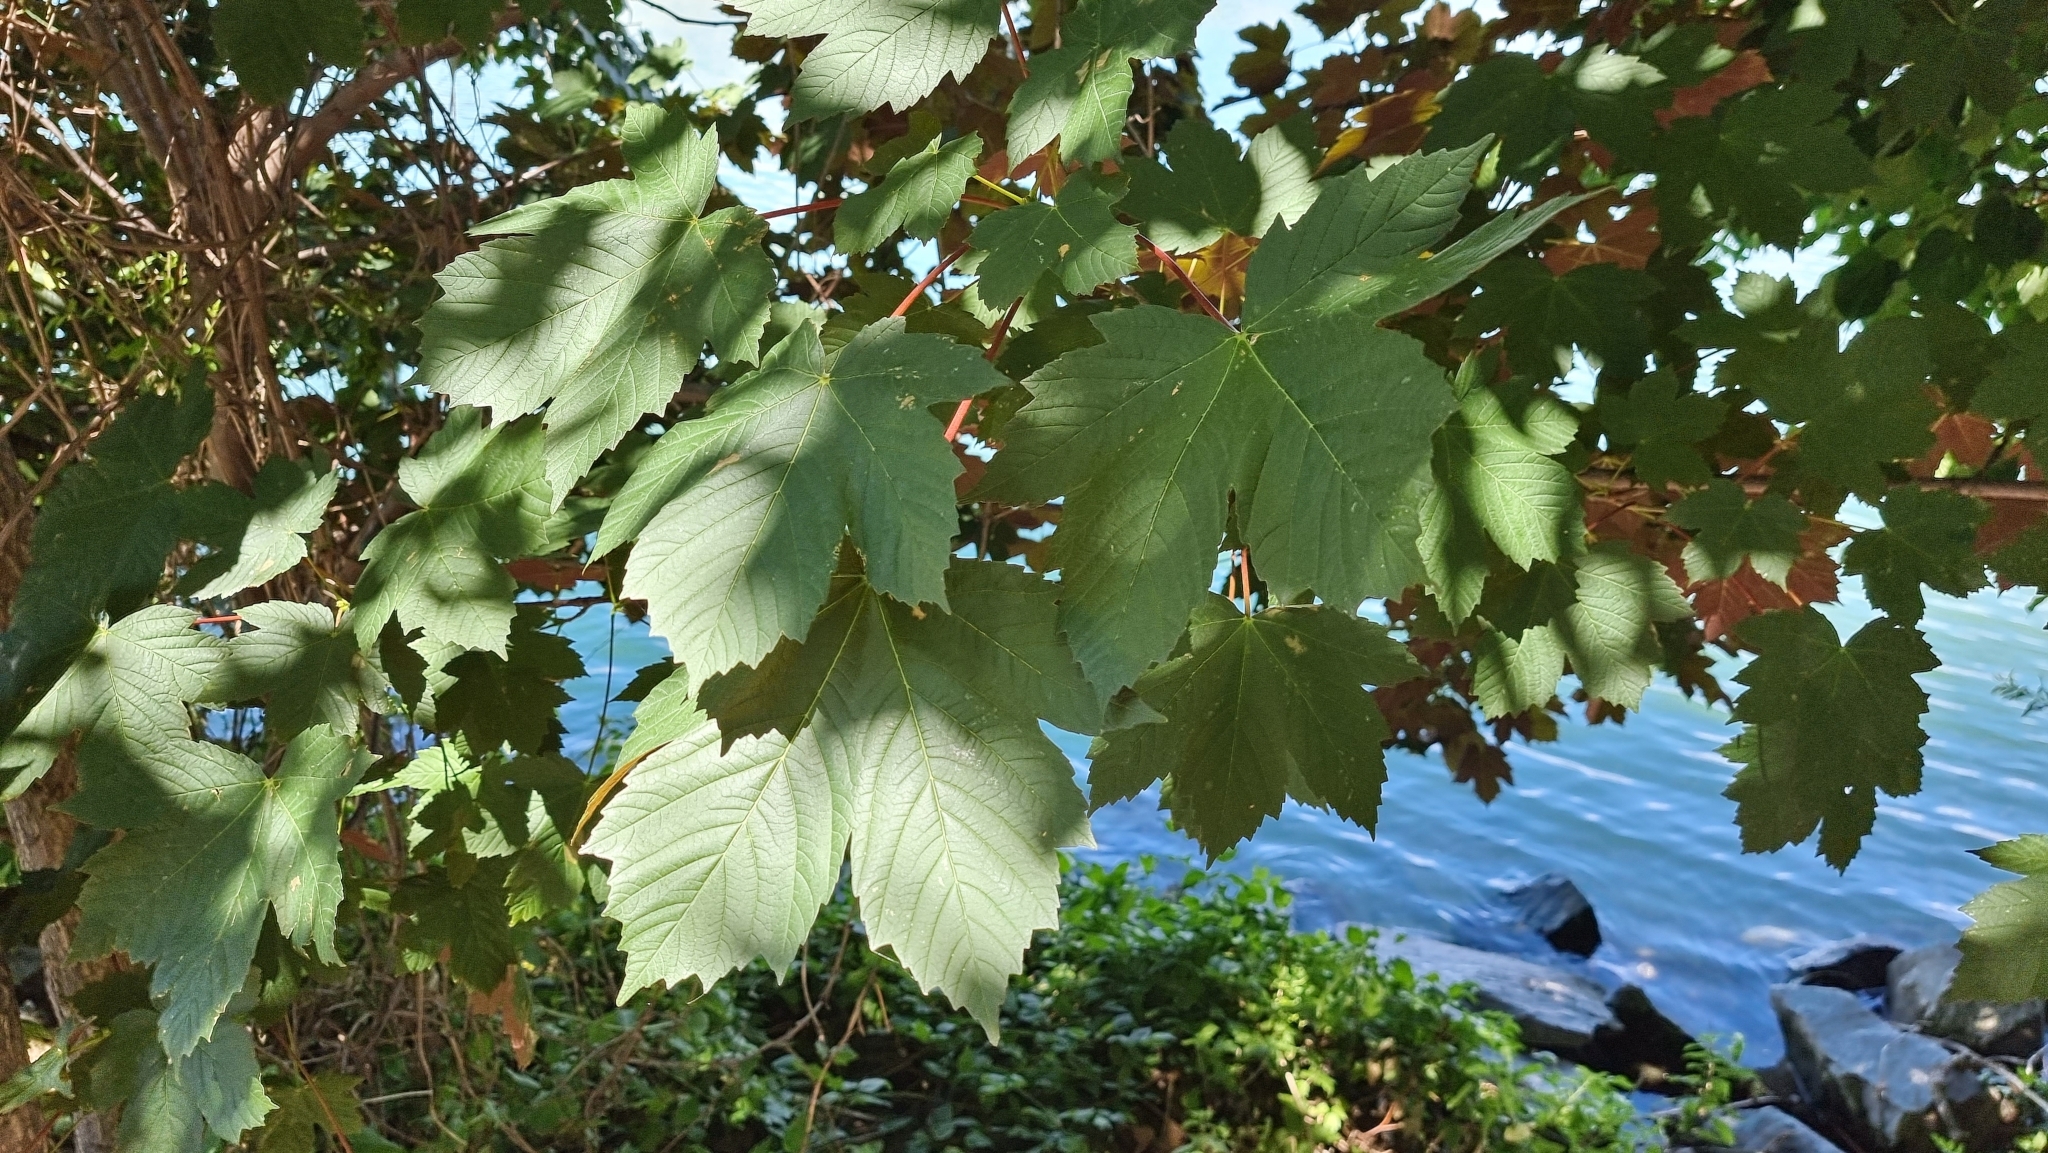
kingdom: Plantae
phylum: Tracheophyta
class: Magnoliopsida
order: Sapindales
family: Sapindaceae
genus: Acer
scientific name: Acer pseudoplatanus
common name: Sycamore
